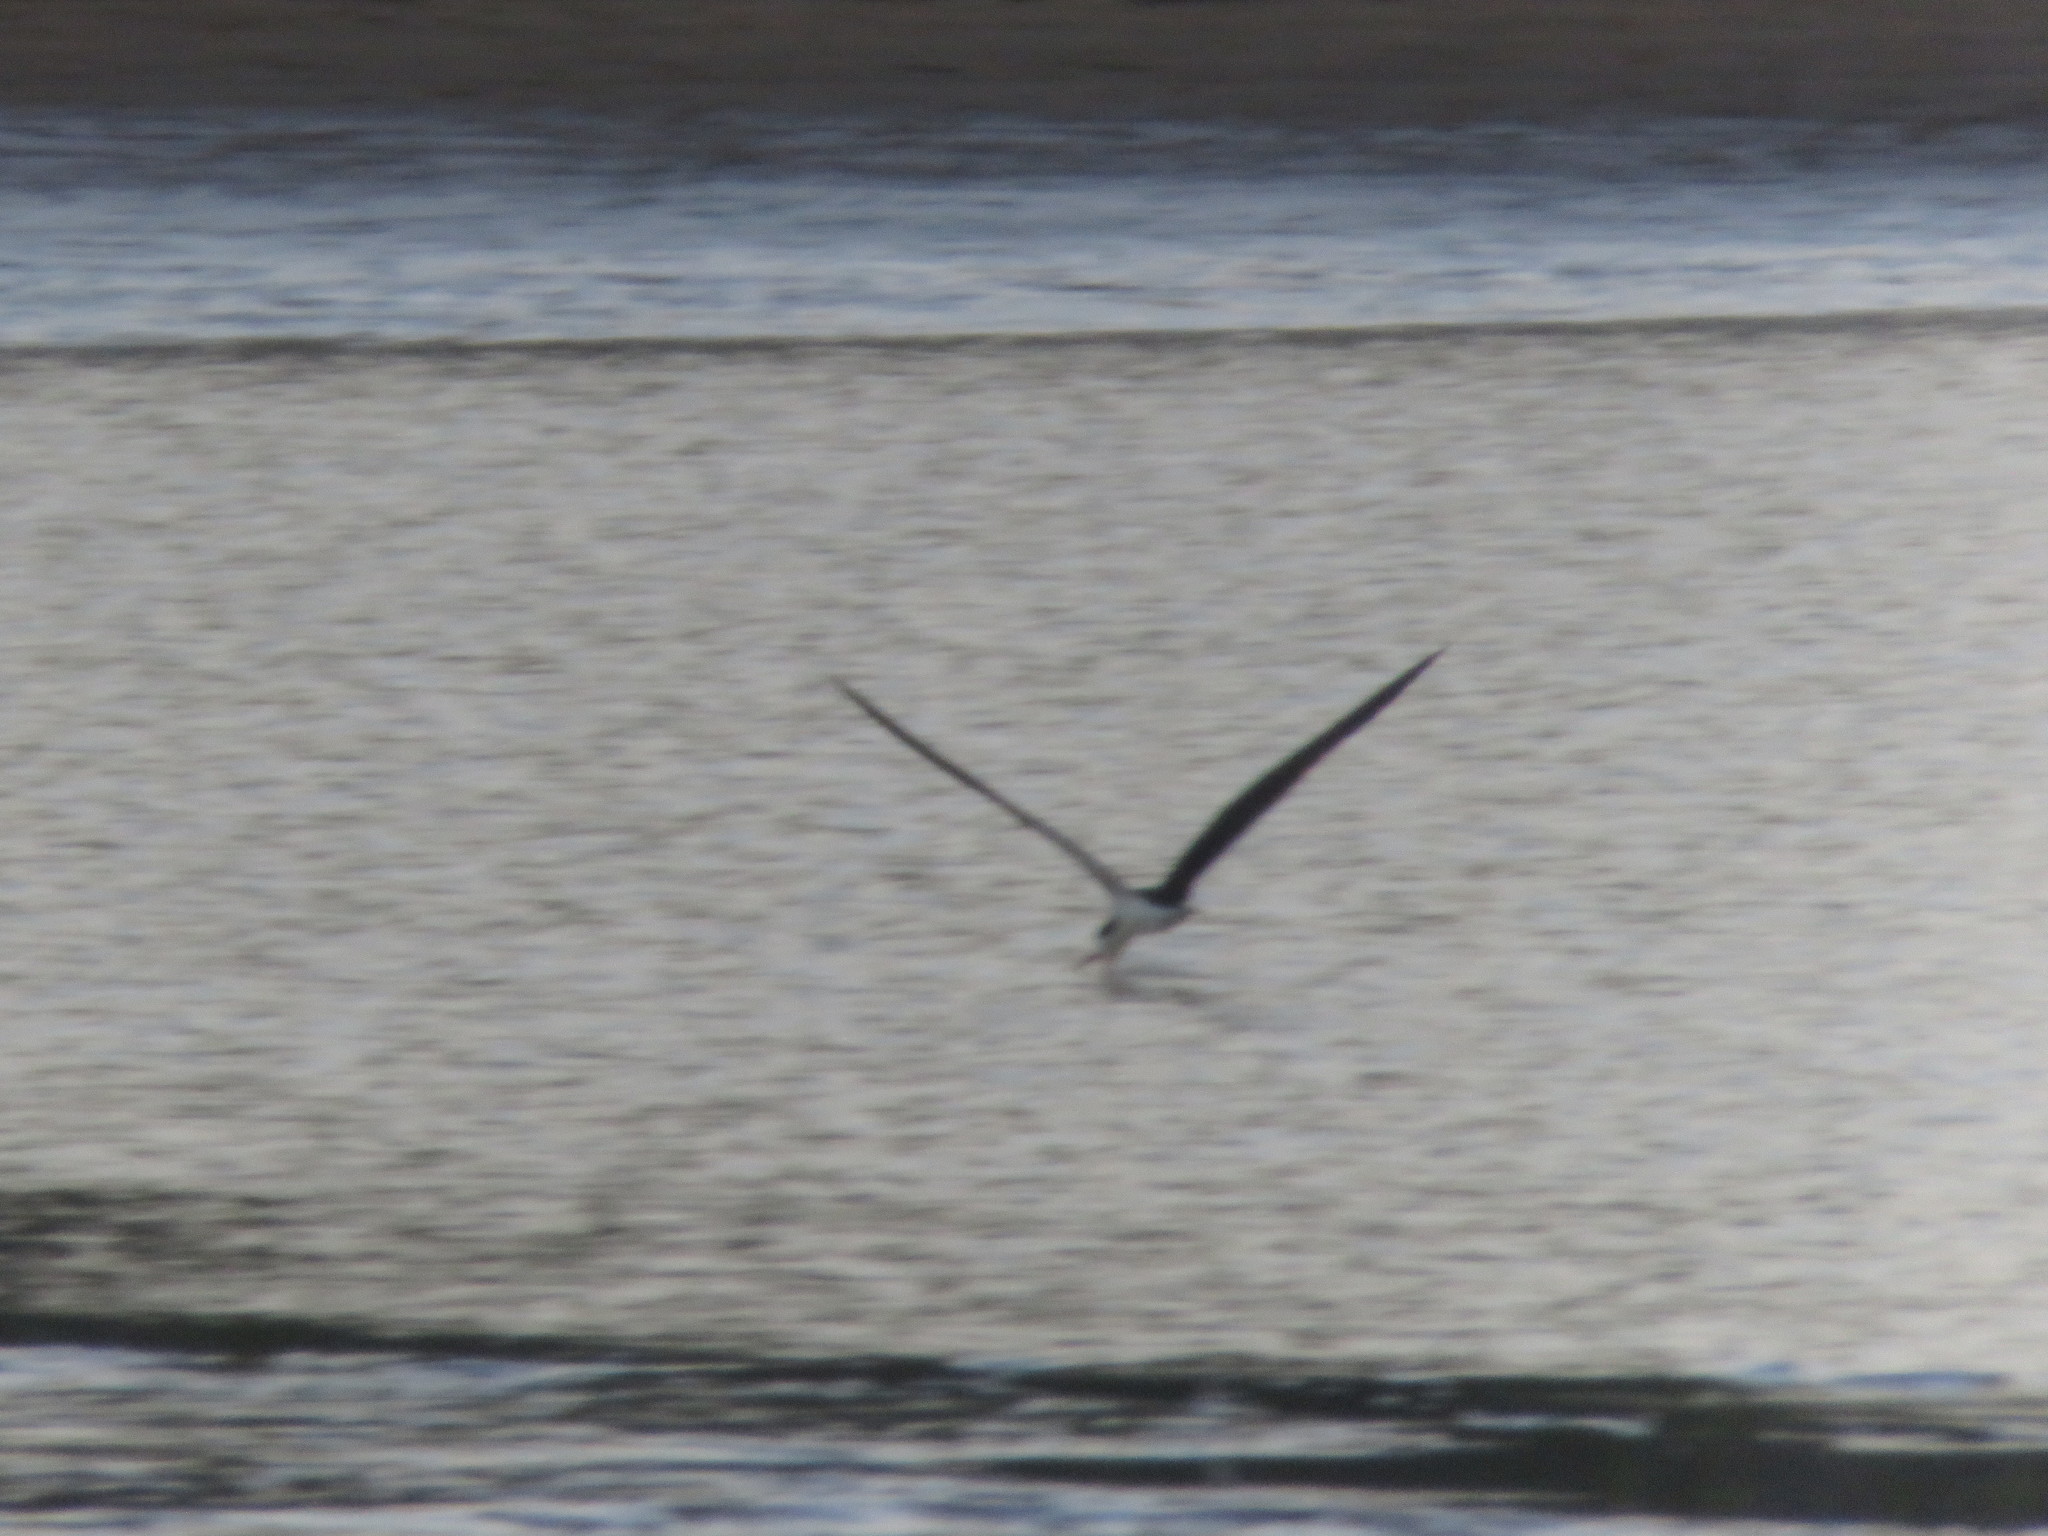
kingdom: Animalia
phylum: Chordata
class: Aves
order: Charadriiformes
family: Laridae
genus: Rynchops
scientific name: Rynchops niger
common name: Black skimmer
